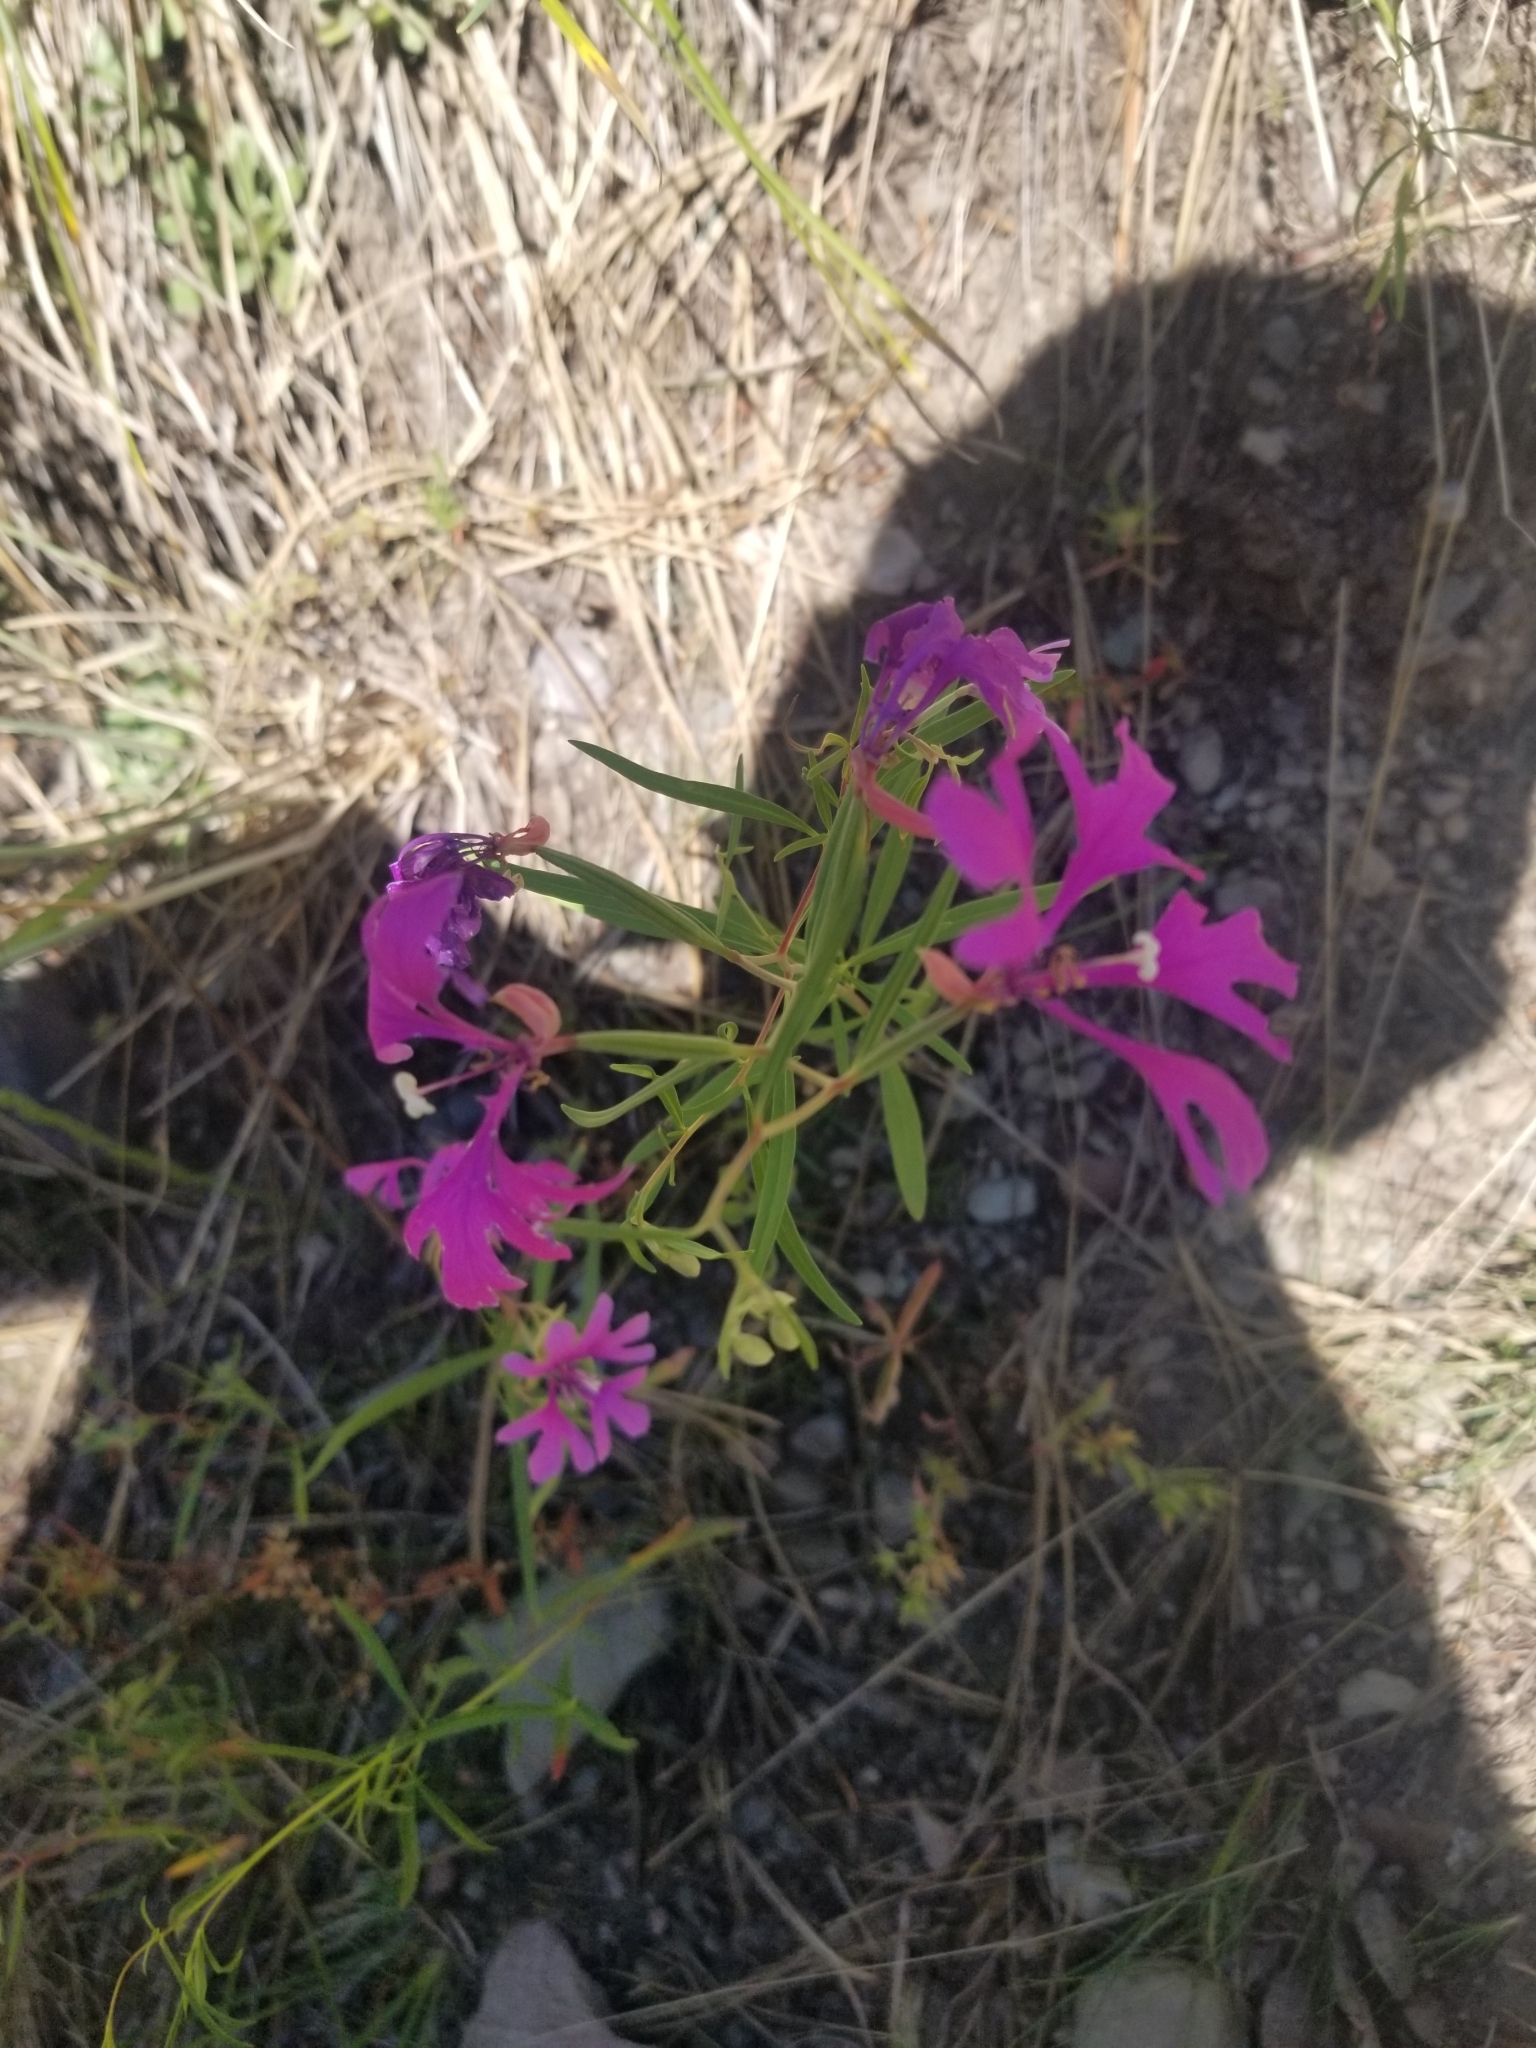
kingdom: Plantae
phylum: Tracheophyta
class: Magnoliopsida
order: Myrtales
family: Onagraceae
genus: Clarkia
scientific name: Clarkia pulchella
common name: Deer horn
